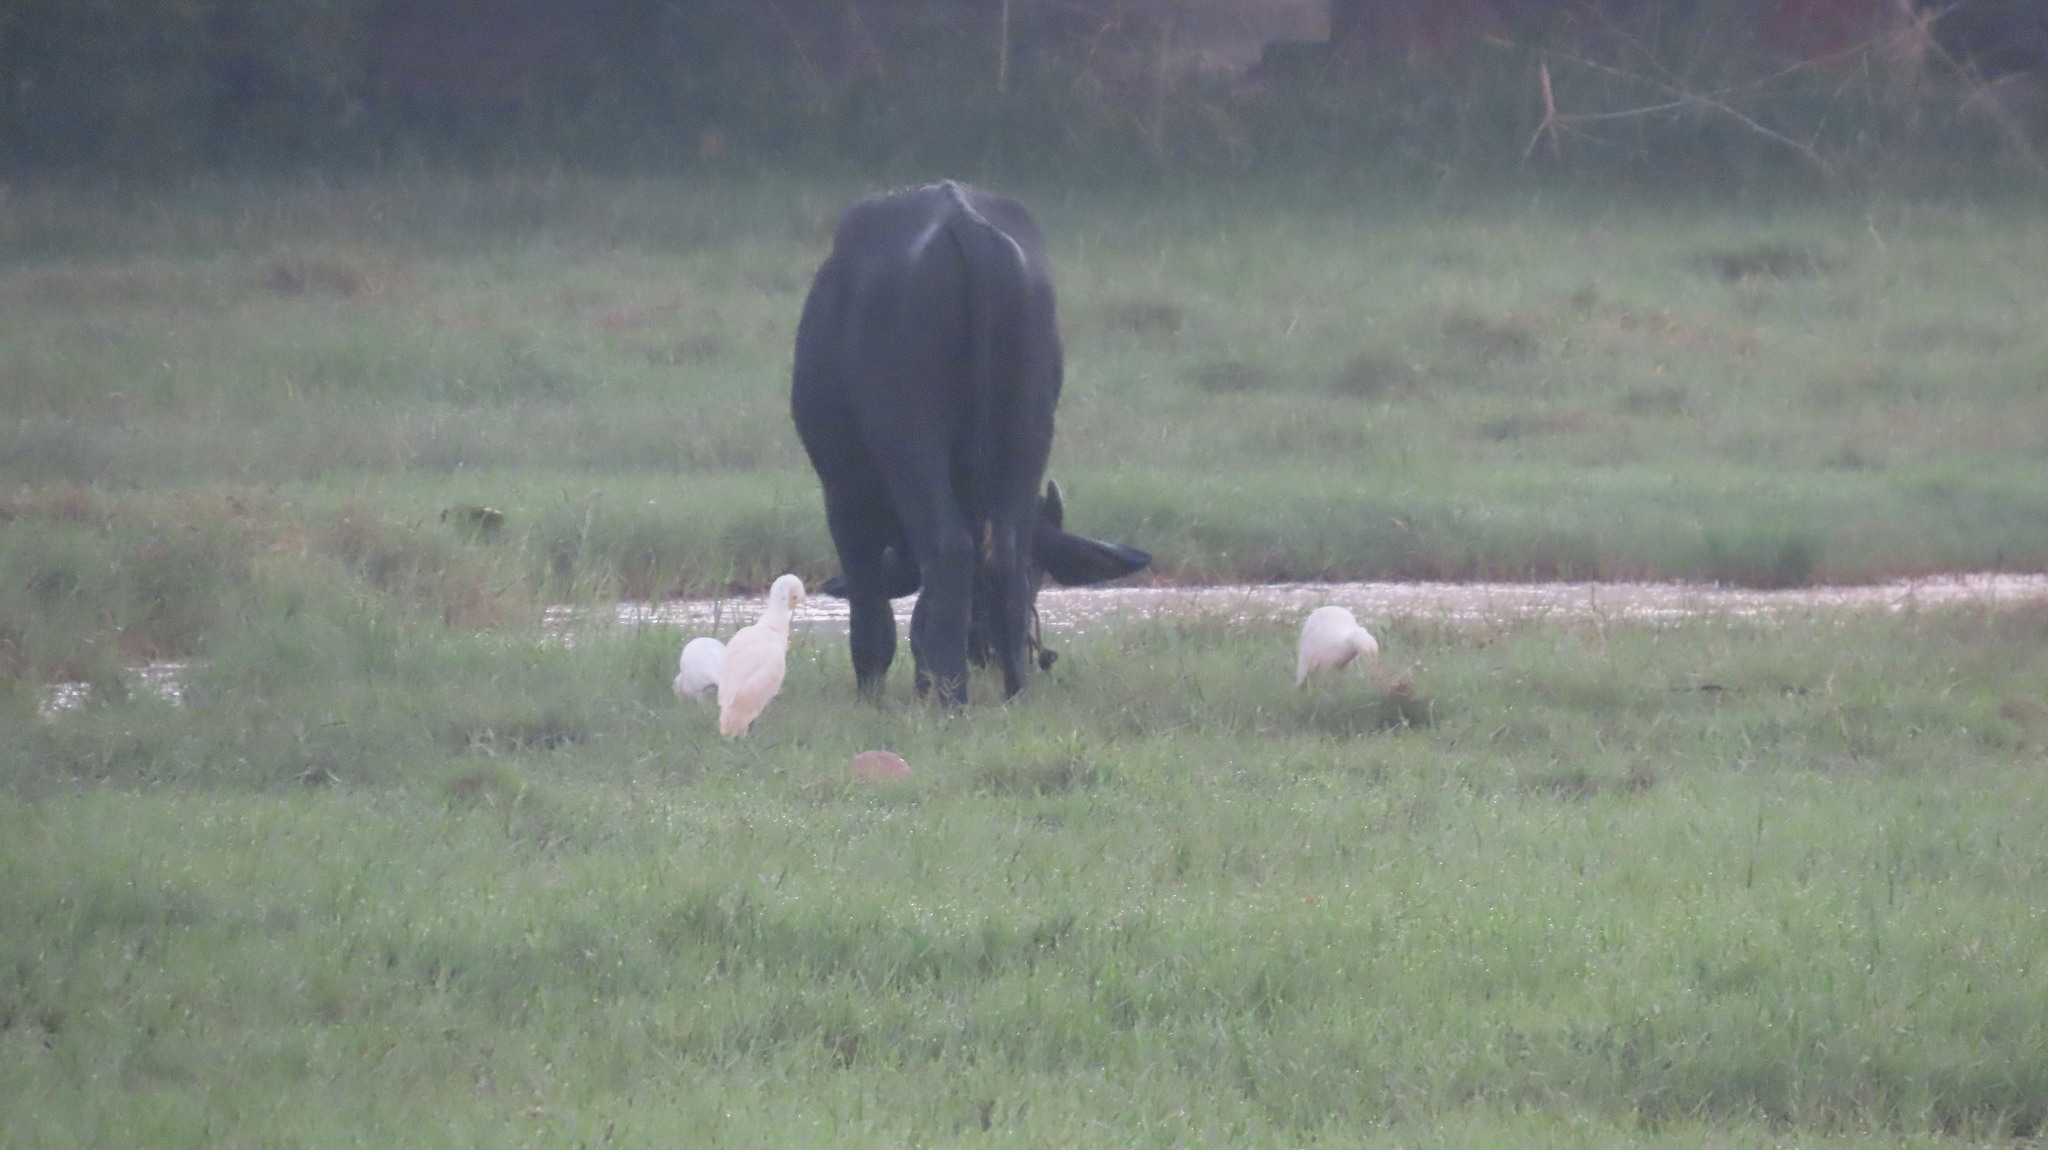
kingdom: Animalia
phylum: Chordata
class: Aves
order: Pelecaniformes
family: Ardeidae
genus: Bubulcus
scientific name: Bubulcus coromandus
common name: Eastern cattle egret
